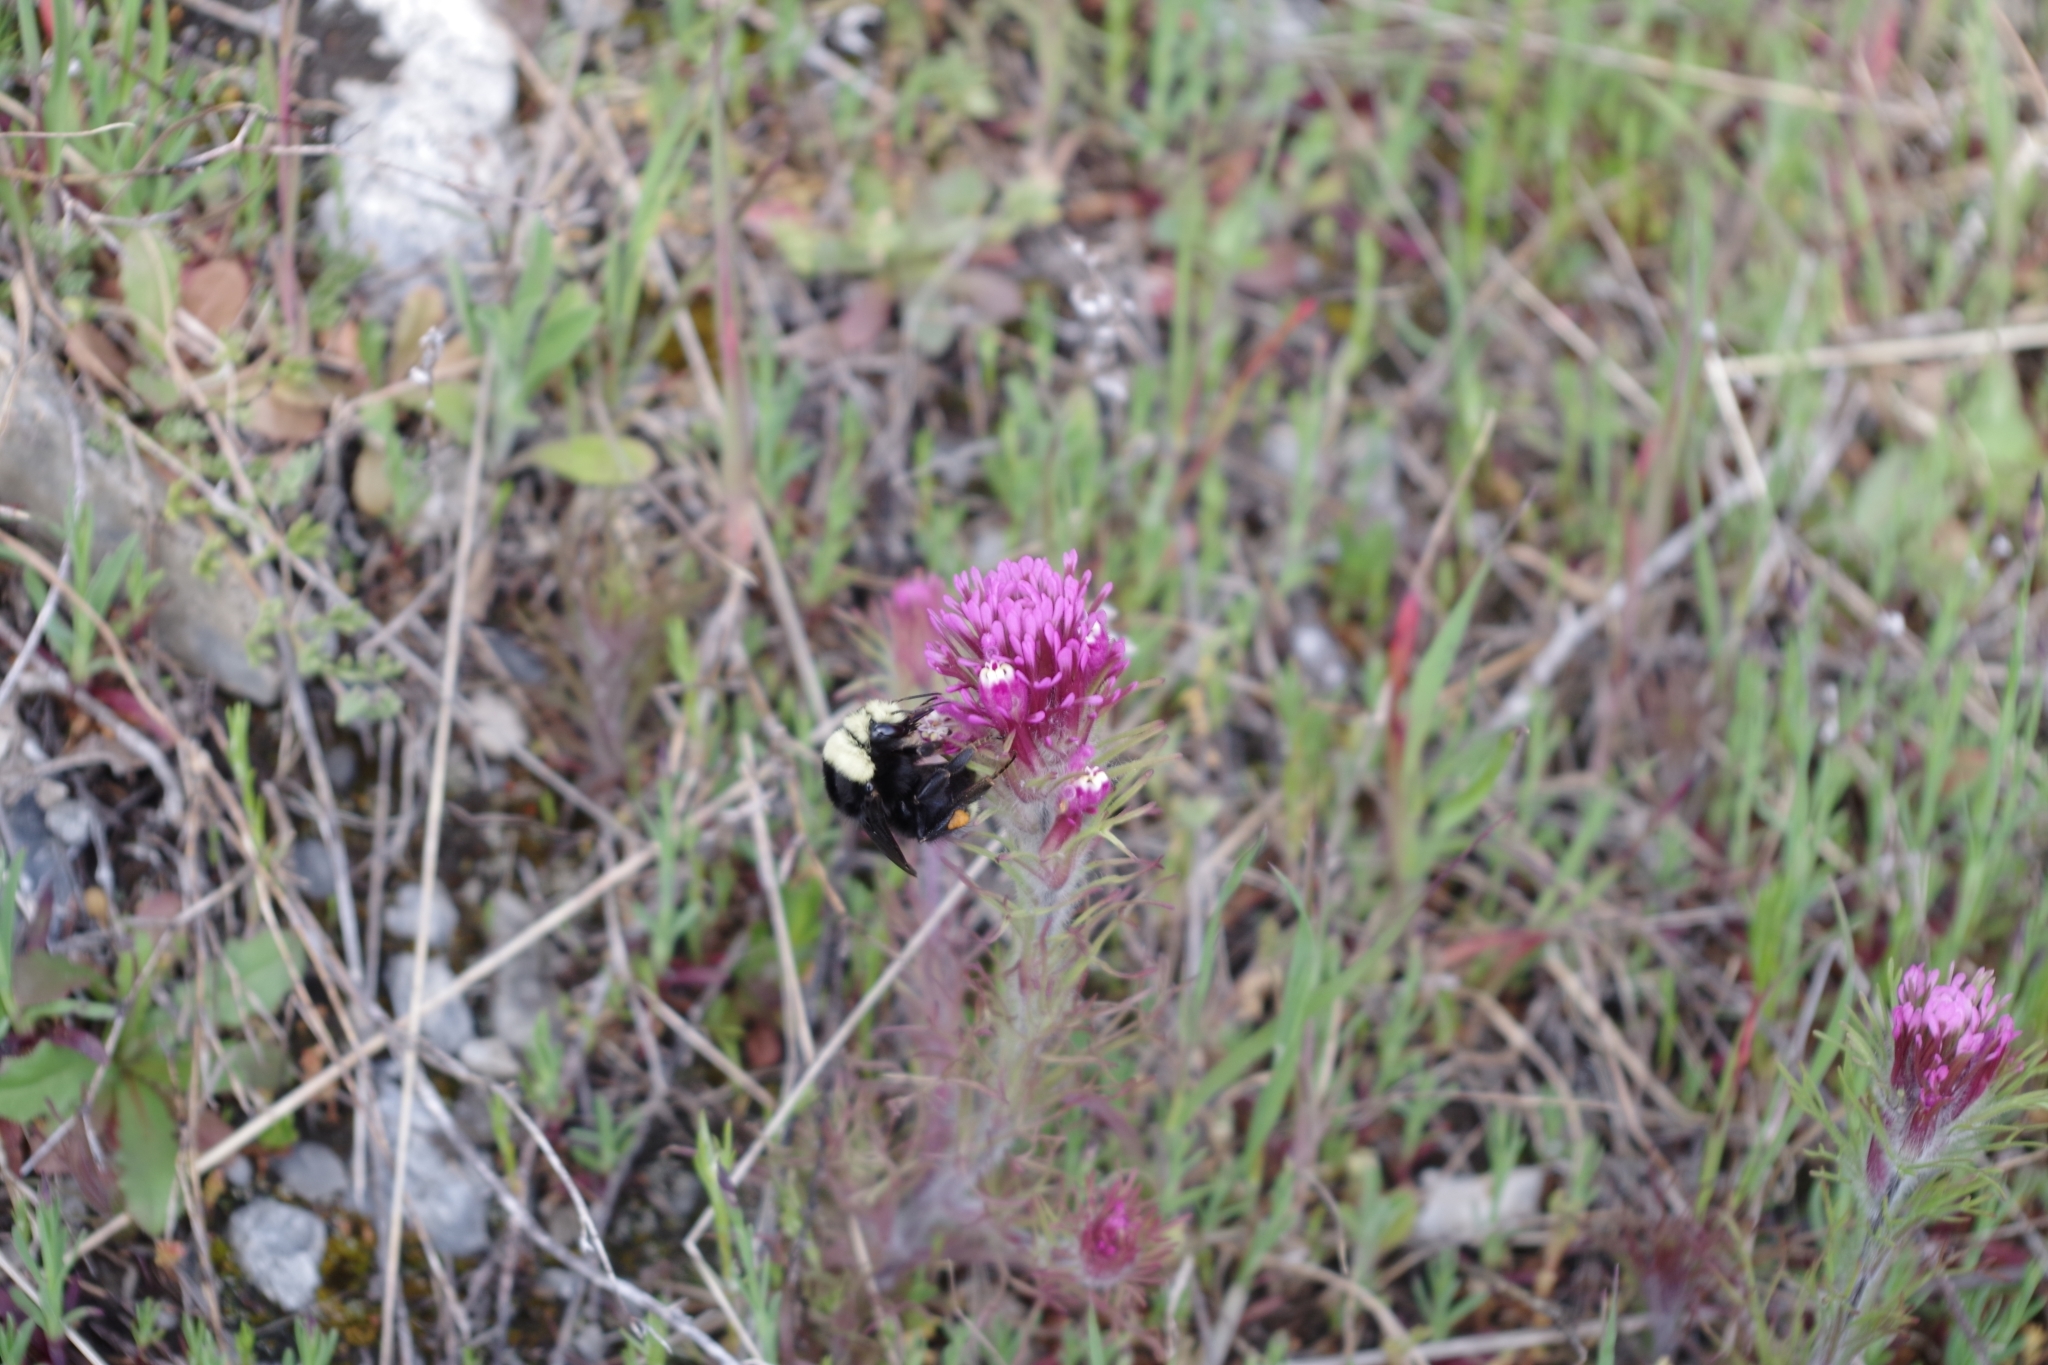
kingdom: Animalia
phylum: Arthropoda
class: Insecta
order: Hymenoptera
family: Apidae
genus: Bombus
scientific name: Bombus vosnesenskii
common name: Vosnesensky bumble bee
